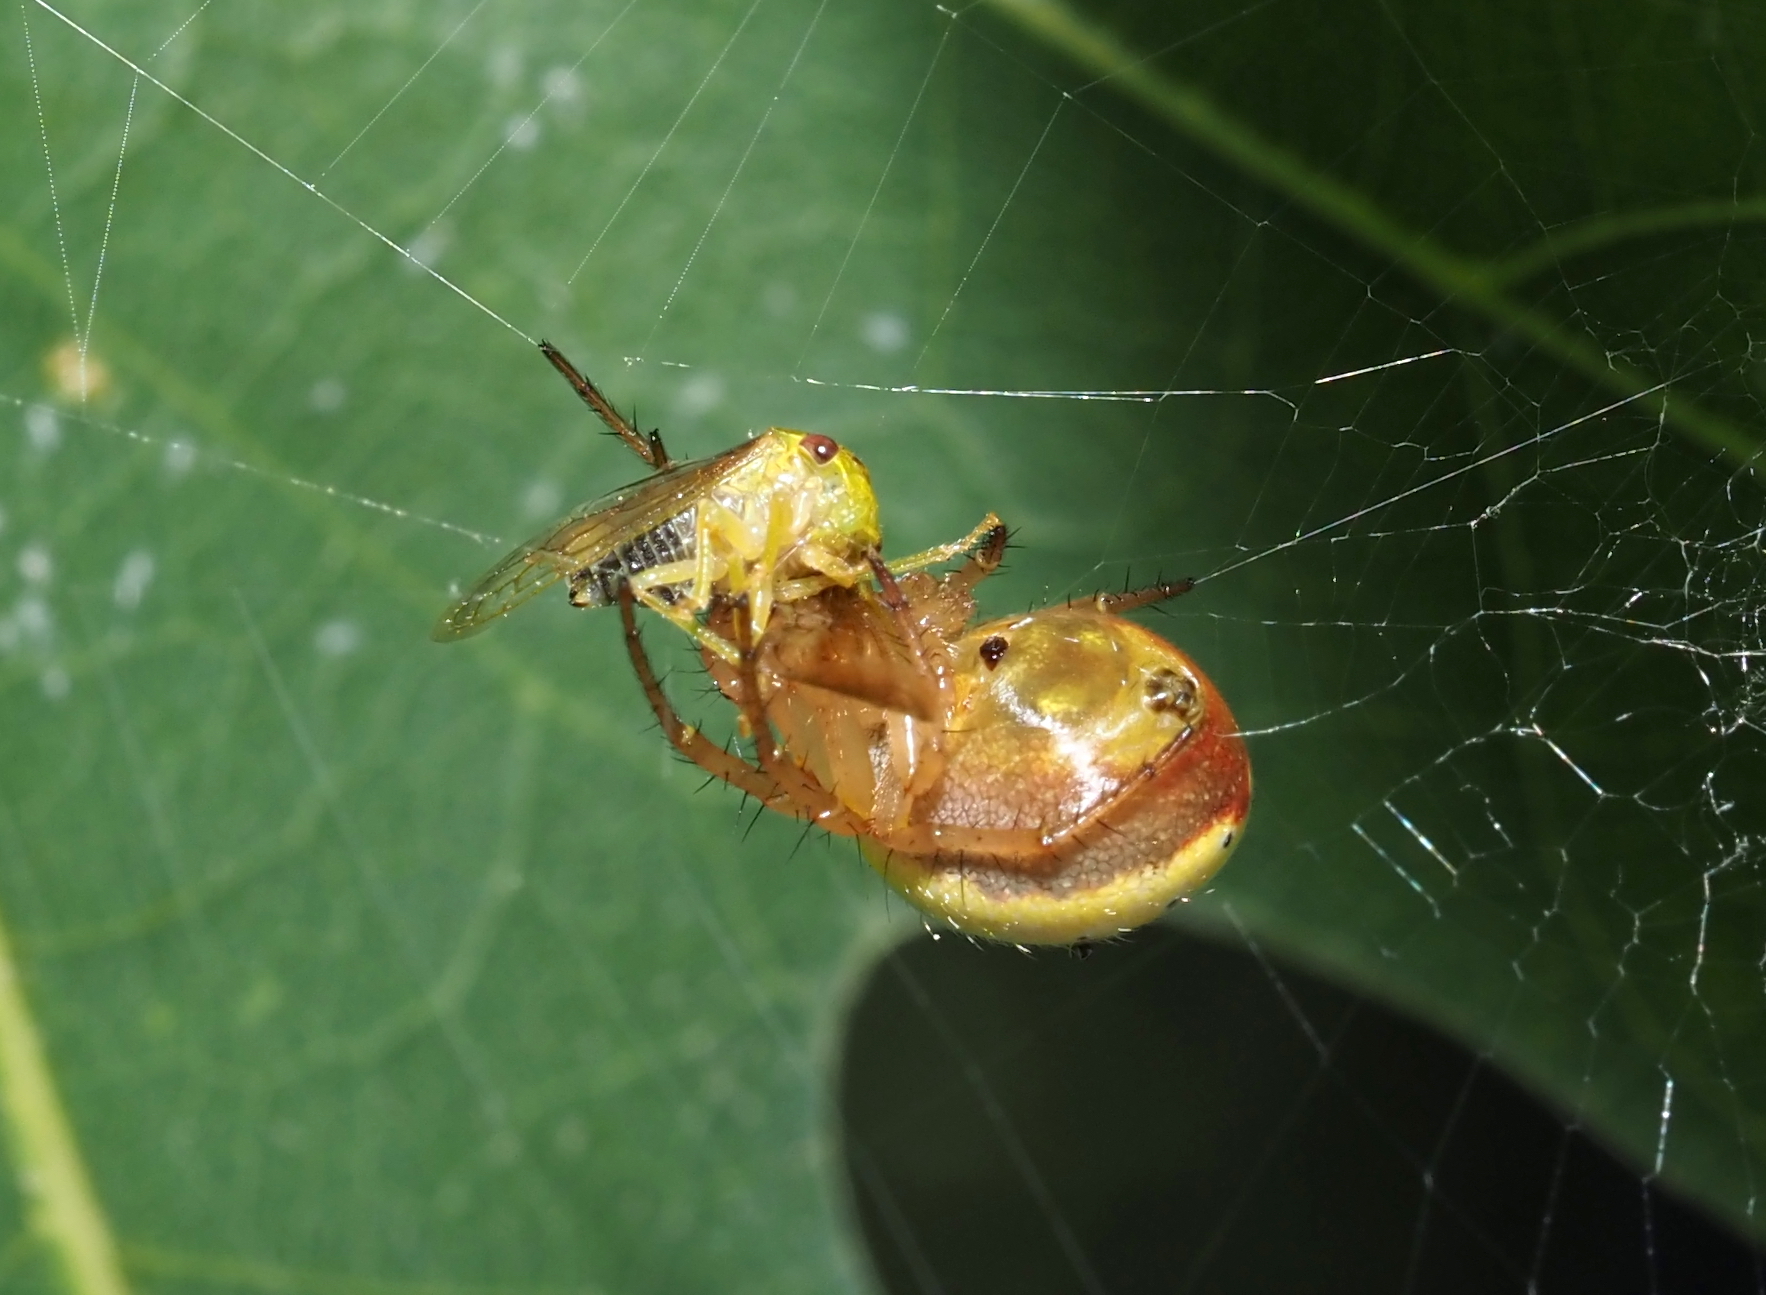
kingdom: Animalia
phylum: Arthropoda
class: Arachnida
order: Araneae
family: Araneidae
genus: Araniella
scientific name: Araniella displicata
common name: Sixspotted orb weaver
